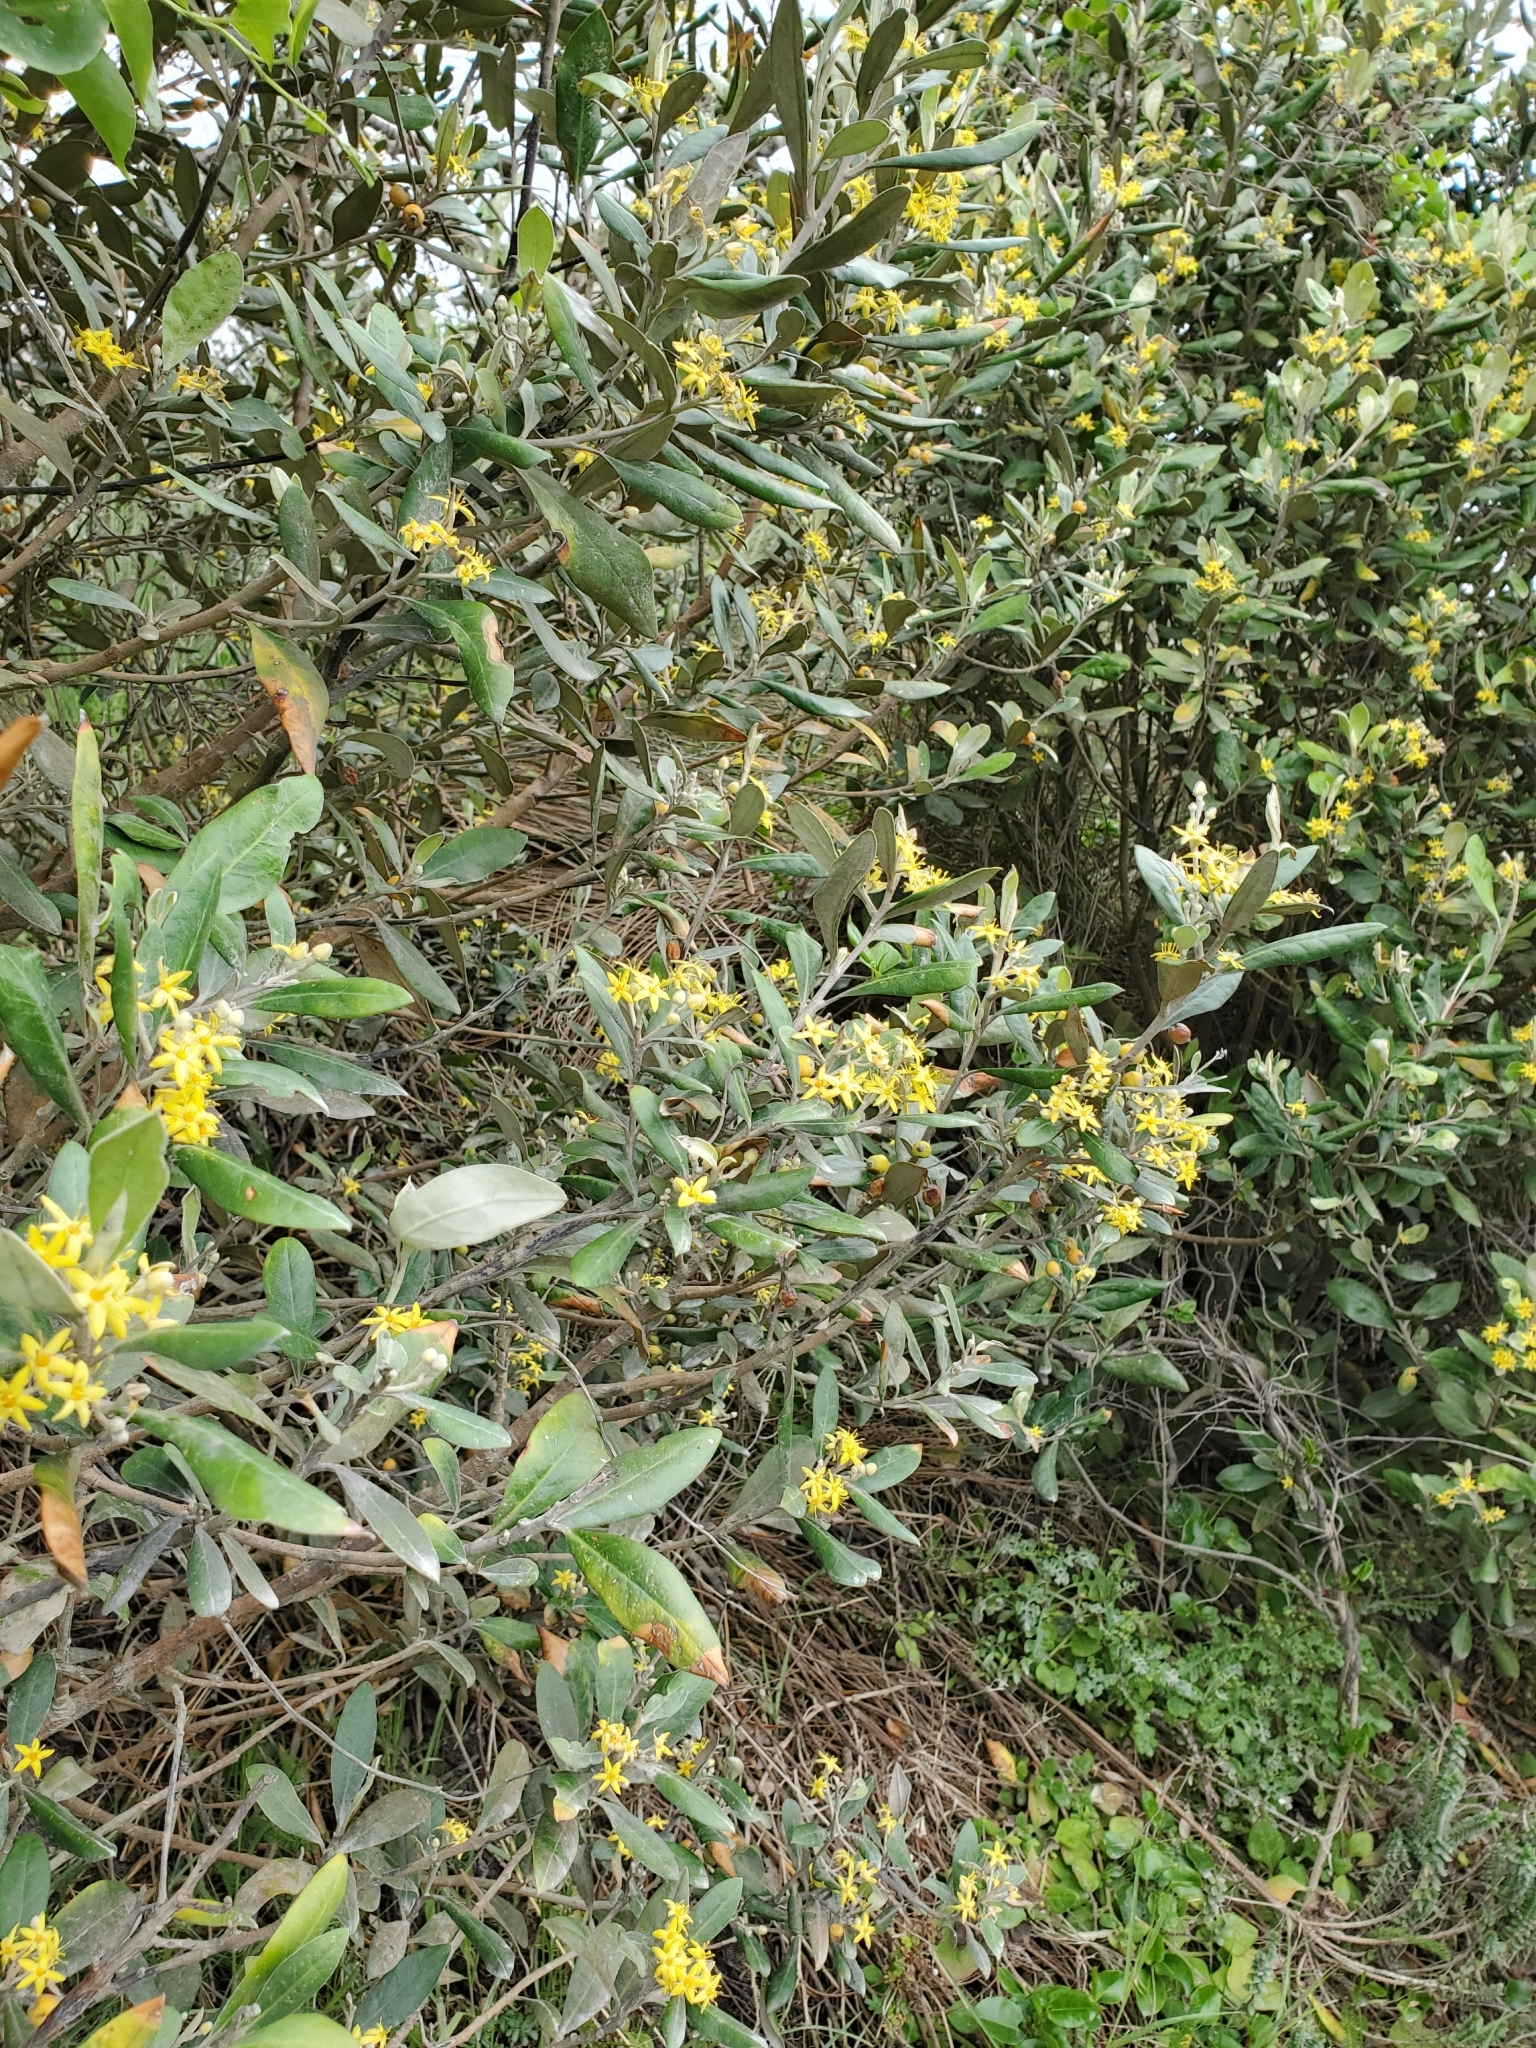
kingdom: Plantae
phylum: Tracheophyta
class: Magnoliopsida
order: Asterales
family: Argophyllaceae
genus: Corokia
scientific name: Corokia macrocarpa
